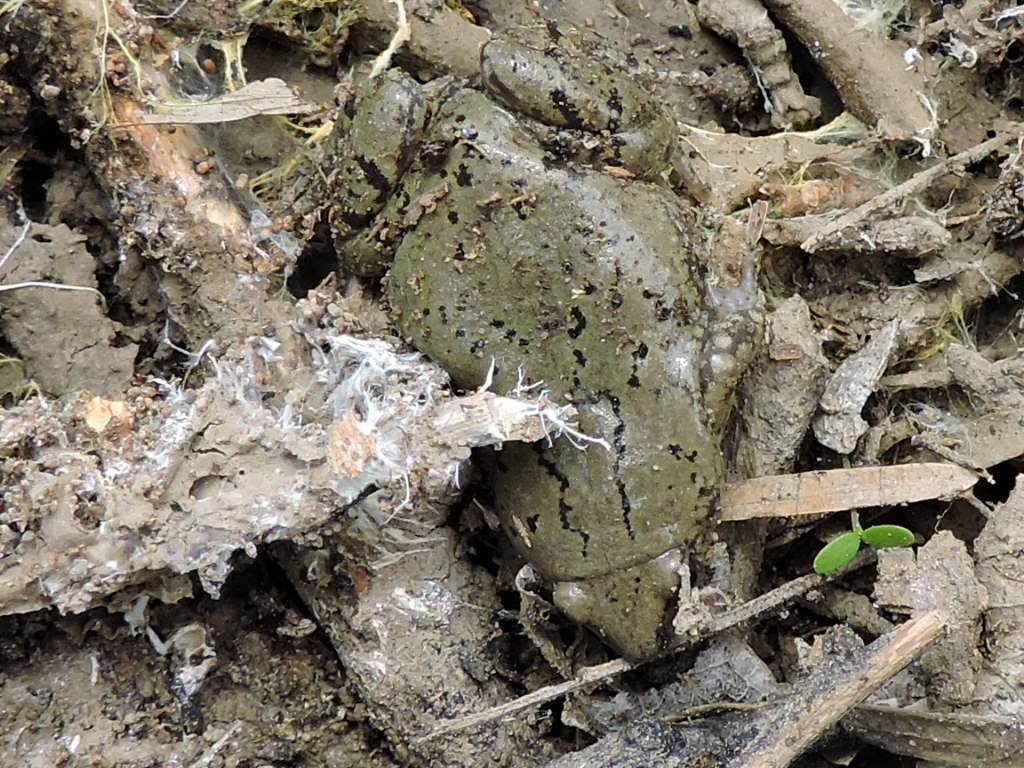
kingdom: Animalia
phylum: Chordata
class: Amphibia
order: Anura
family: Microhylidae
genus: Gastrophryne
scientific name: Gastrophryne olivacea
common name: Great plains narrow-mouthed toad
